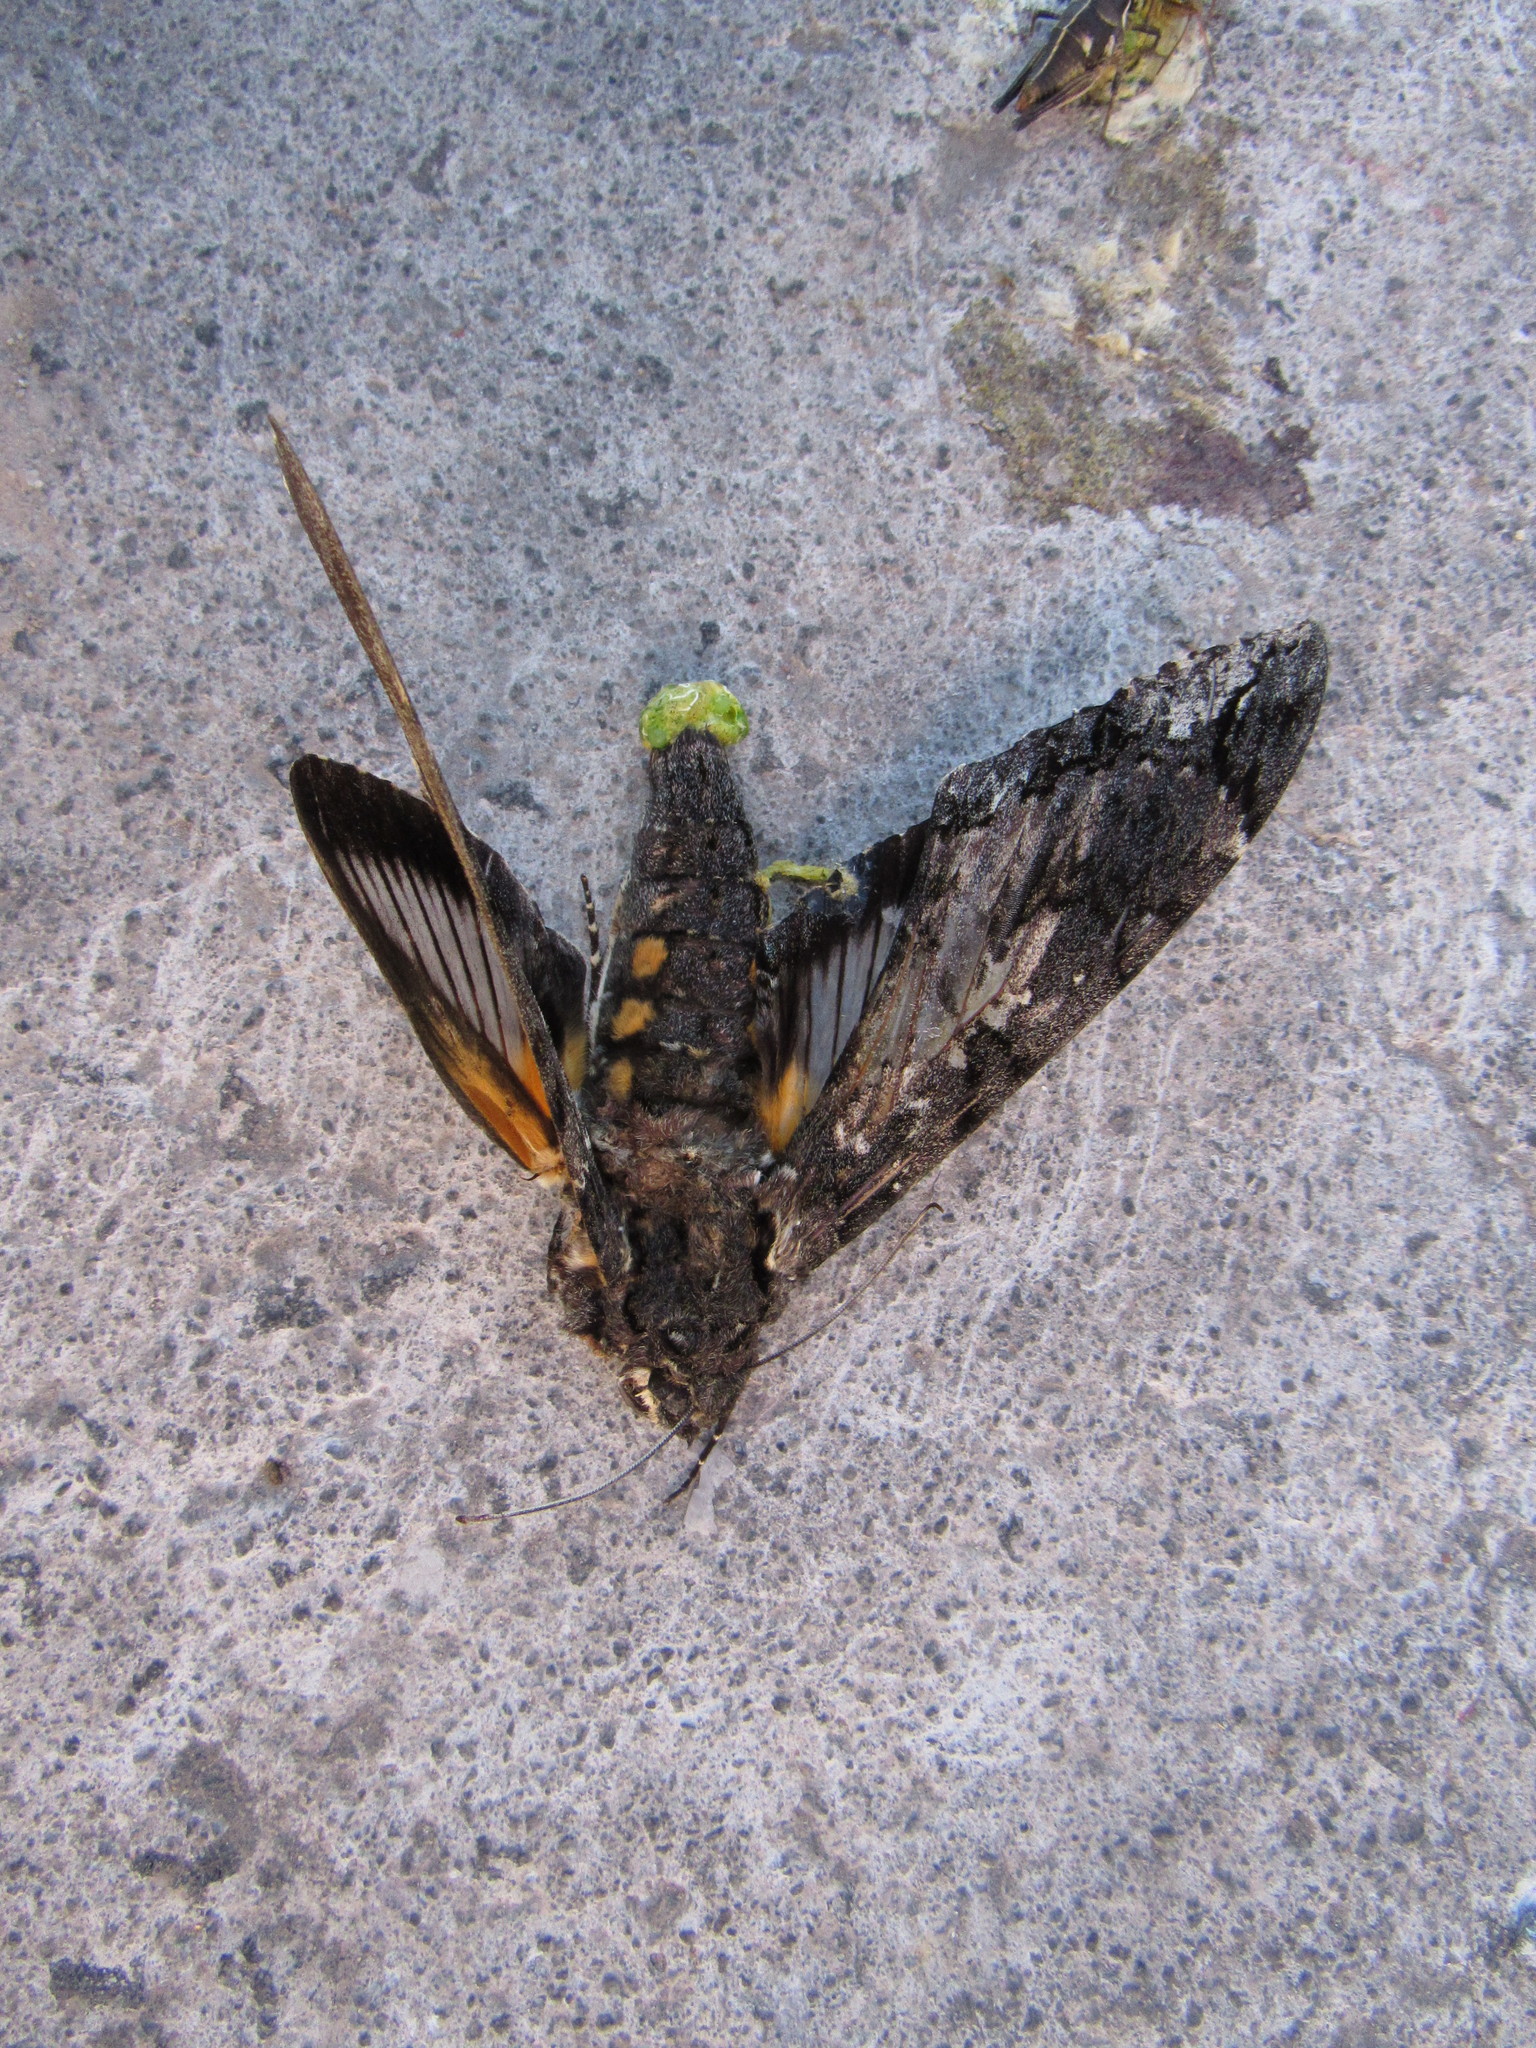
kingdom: Animalia
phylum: Arthropoda
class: Insecta
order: Lepidoptera
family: Sphingidae
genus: Cocytius
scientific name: Cocytius antaeus
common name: Giant sphinx
